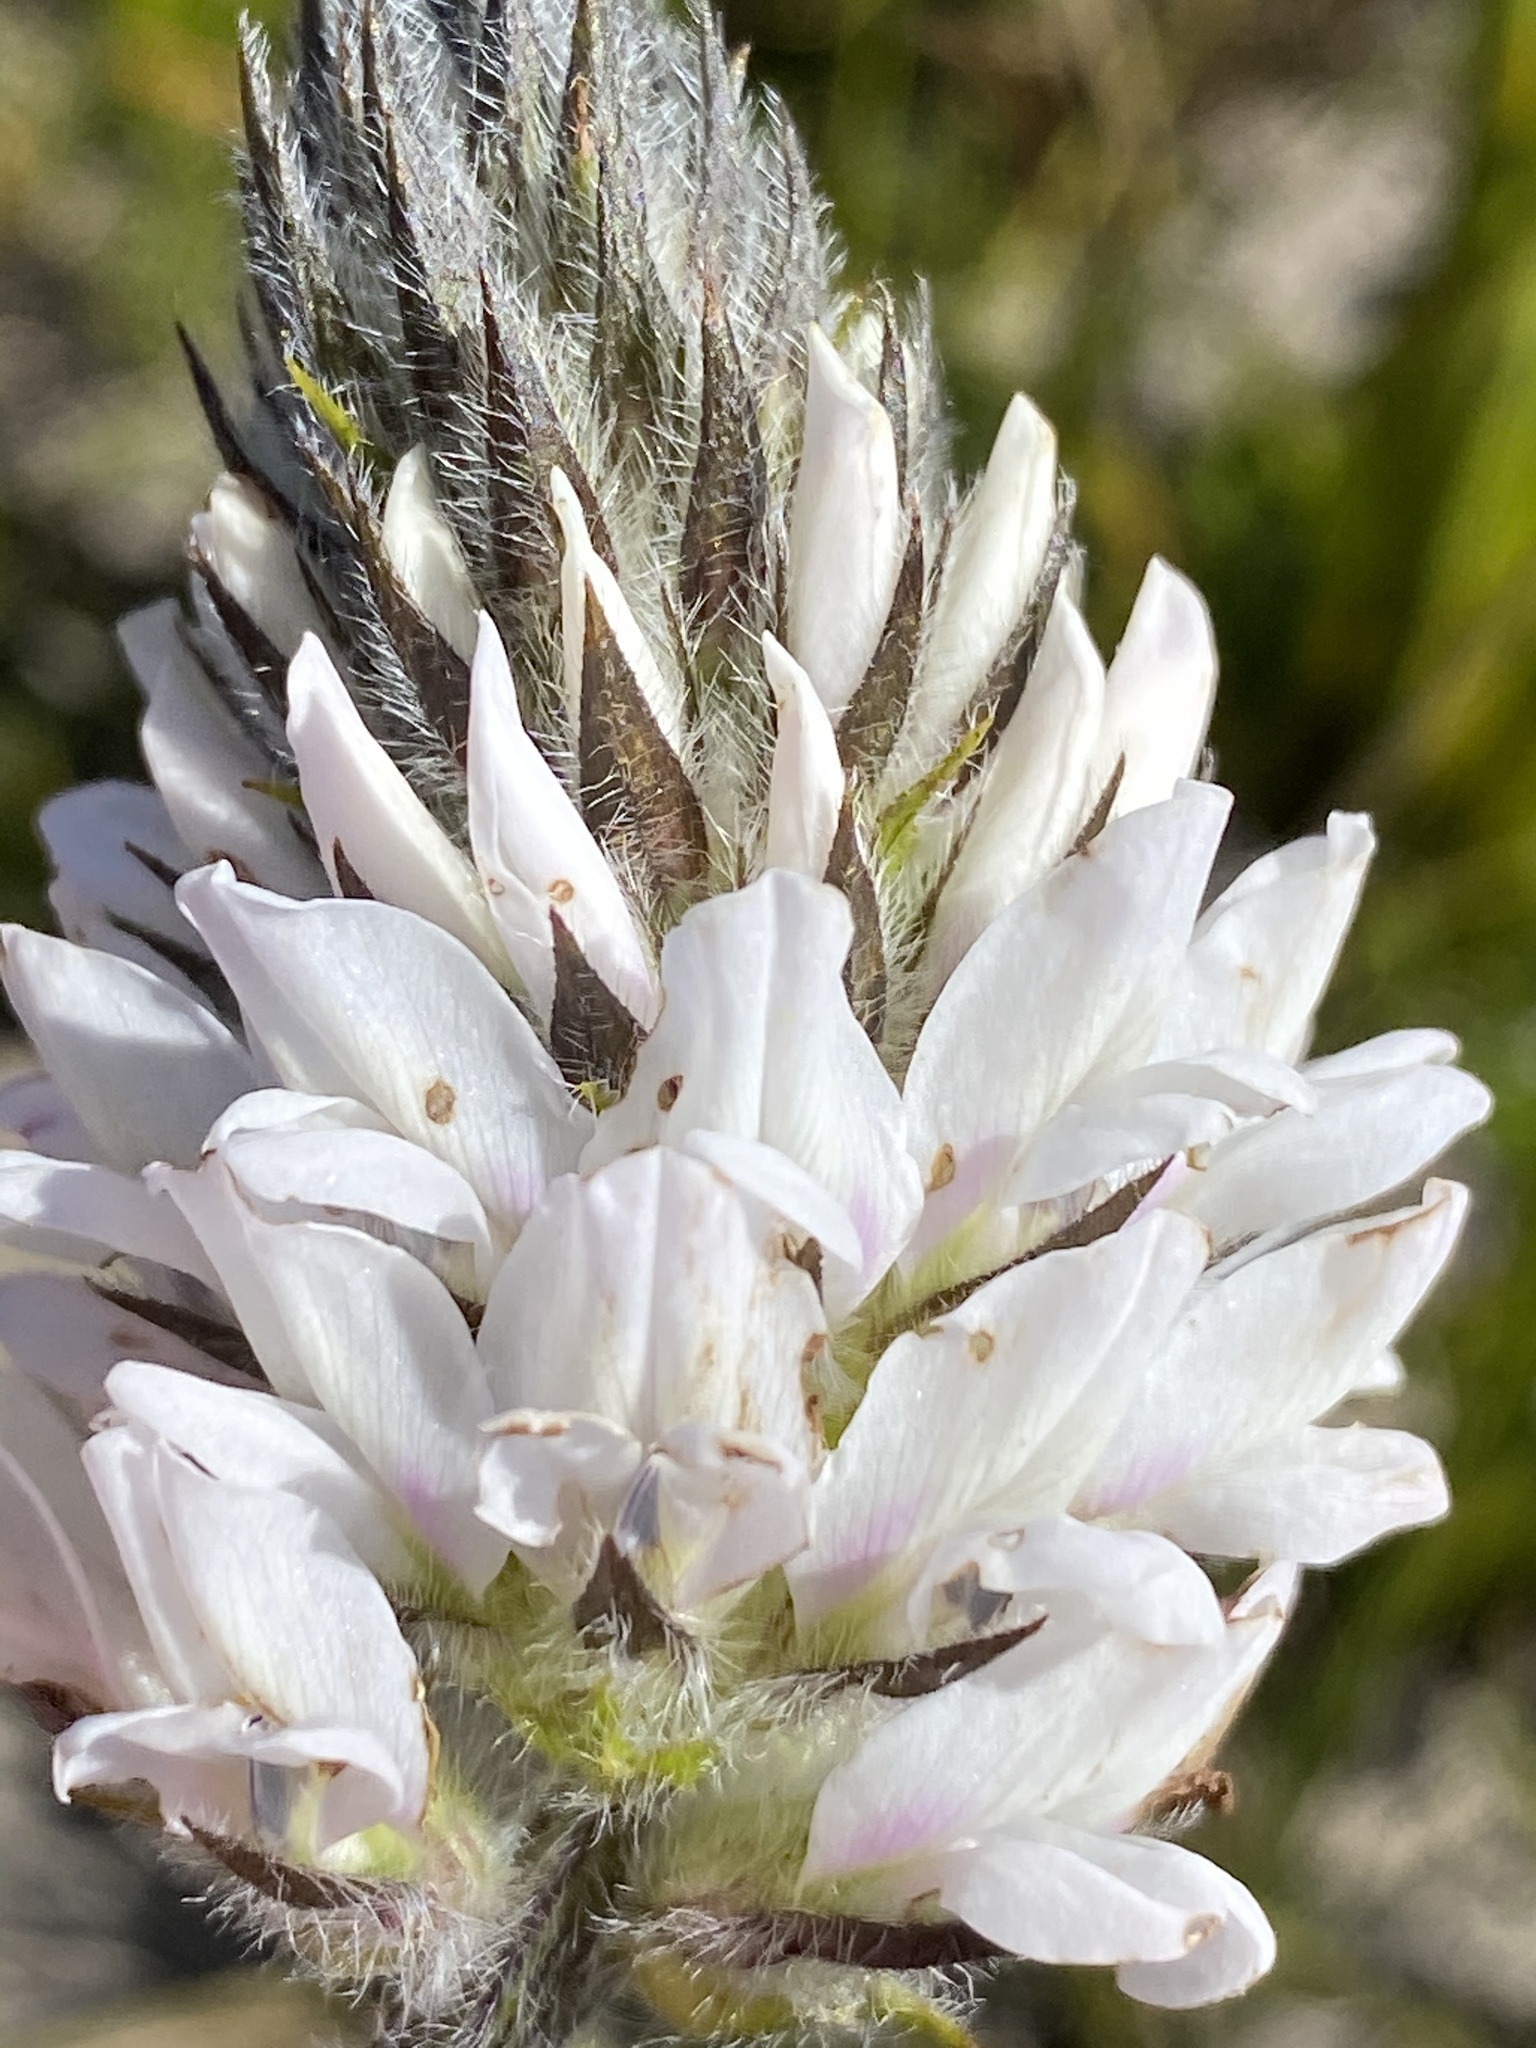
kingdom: Plantae
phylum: Tracheophyta
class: Magnoliopsida
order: Fabales
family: Fabaceae
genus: Psoralea
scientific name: Psoralea zeyheri
